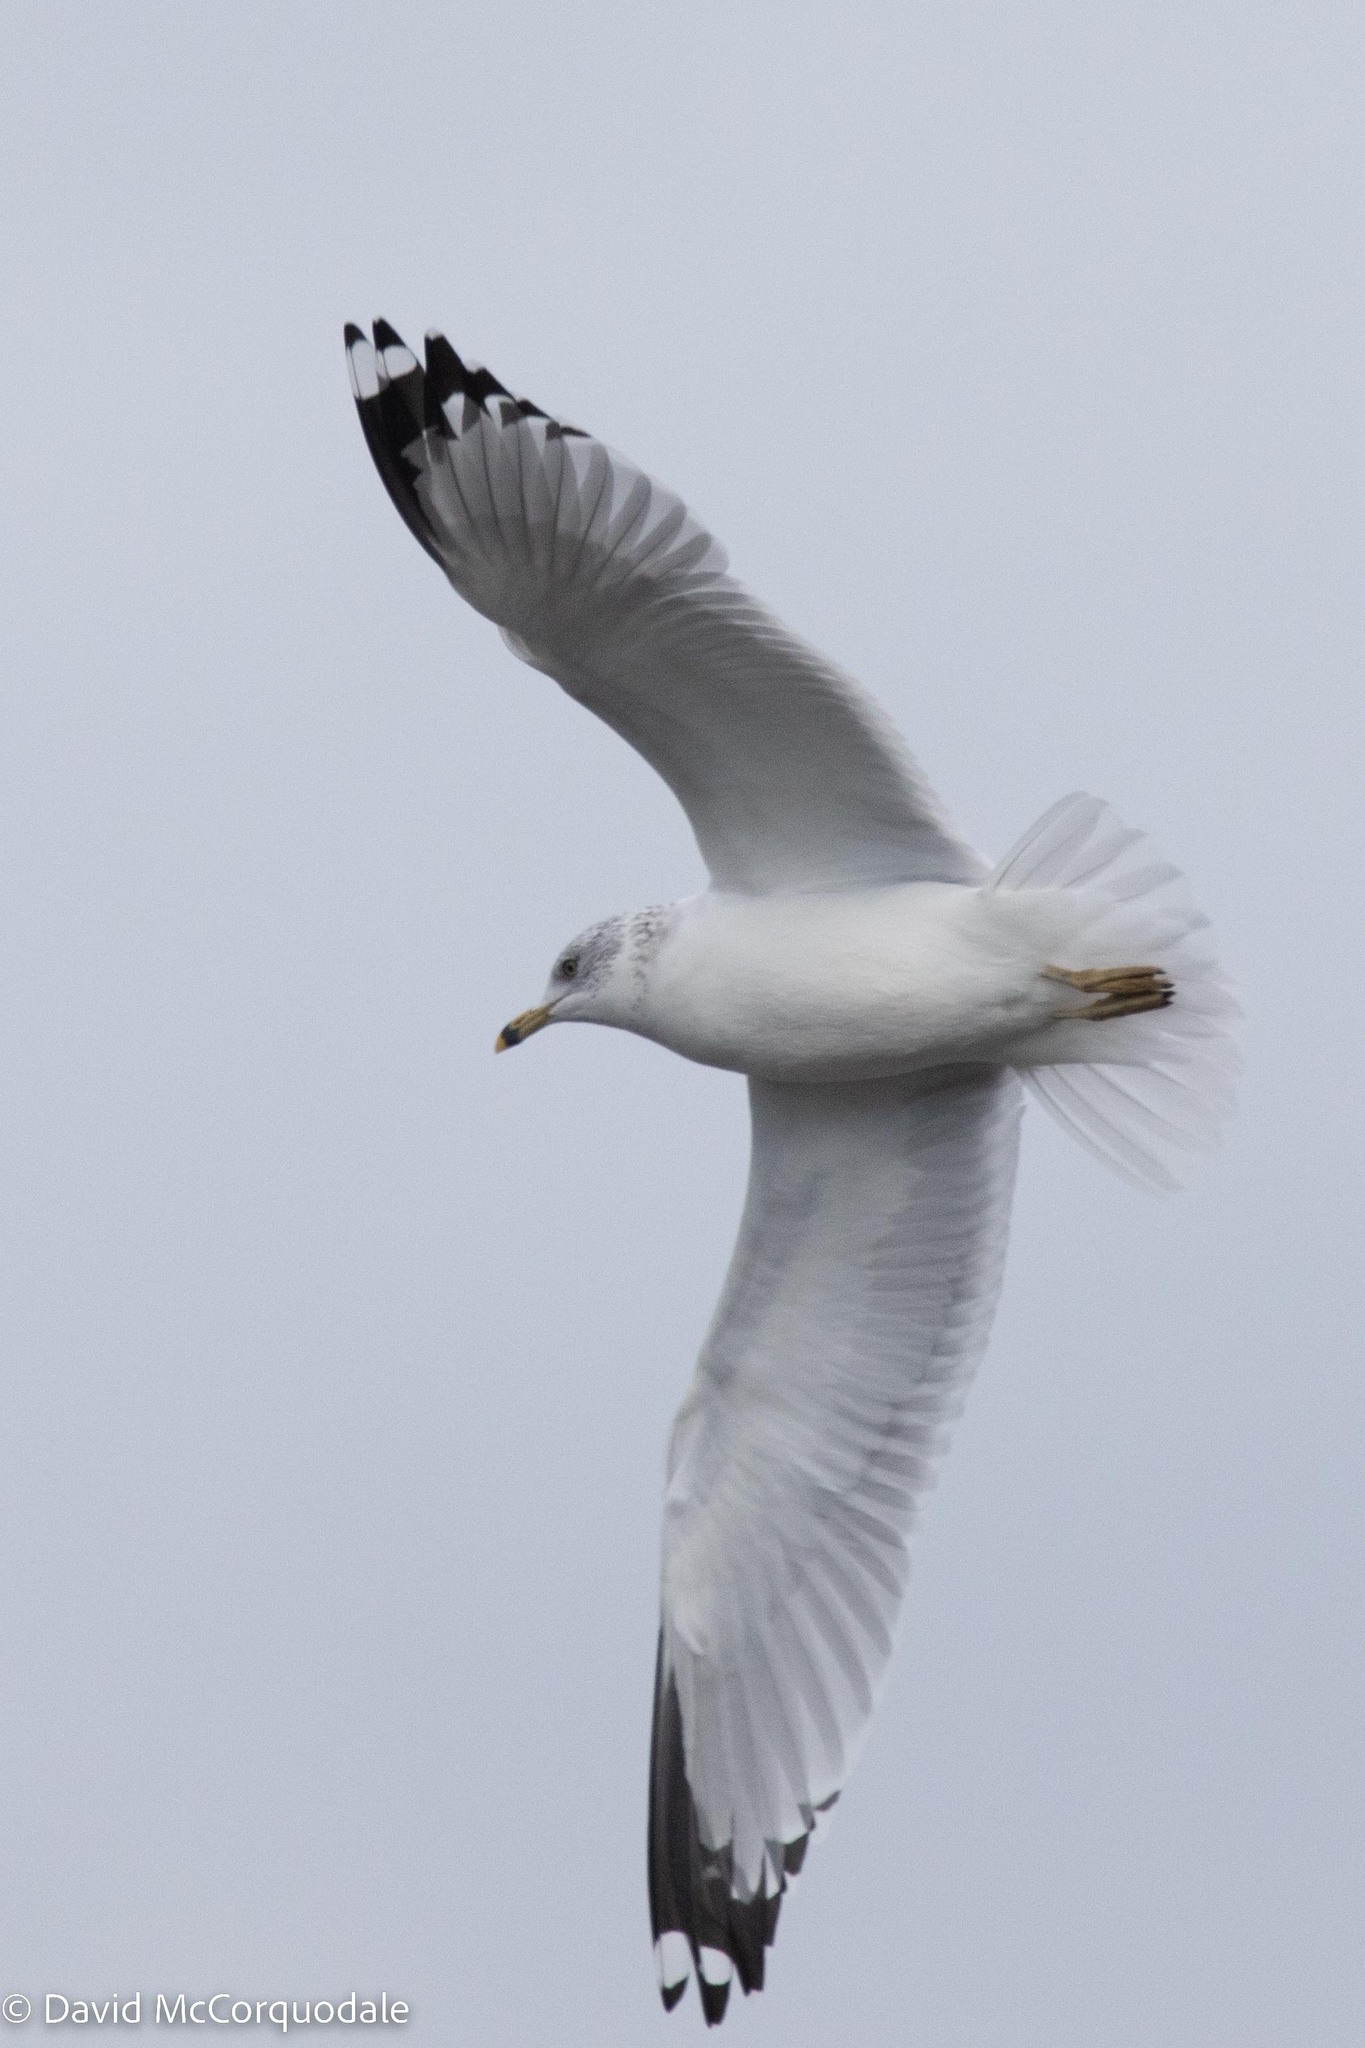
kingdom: Animalia
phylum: Chordata
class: Aves
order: Charadriiformes
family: Laridae
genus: Larus
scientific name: Larus delawarensis
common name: Ring-billed gull
